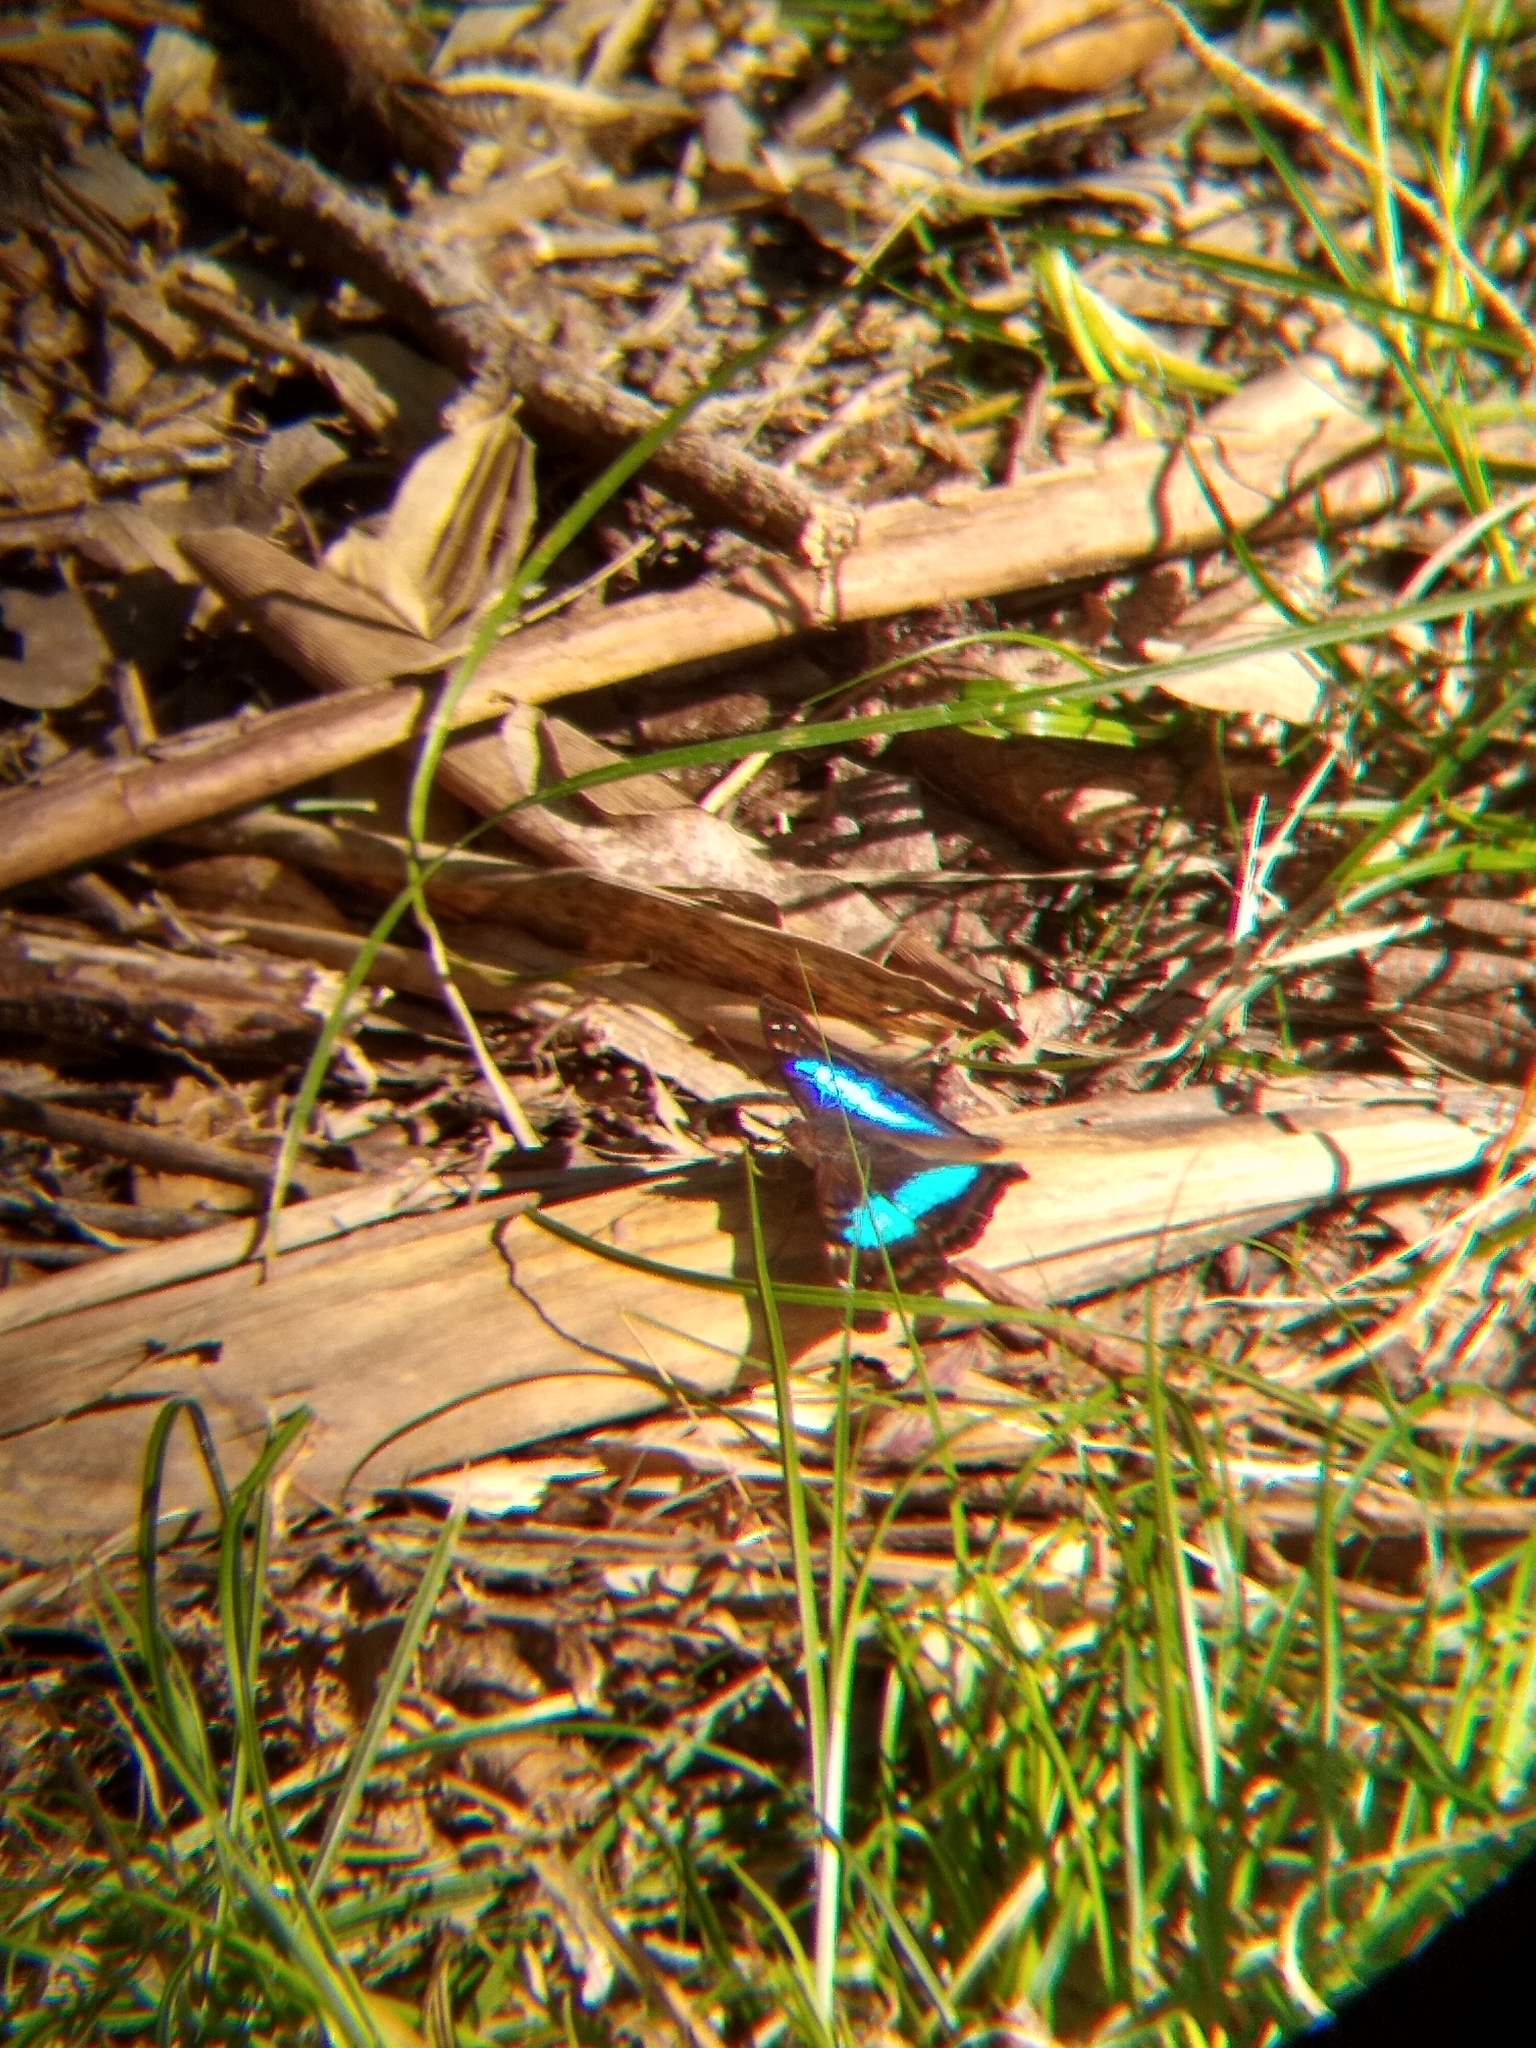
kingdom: Animalia
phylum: Arthropoda
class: Insecta
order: Lepidoptera
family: Nymphalidae
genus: Doxocopa
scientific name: Doxocopa laurentia
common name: Turquoise emperor
